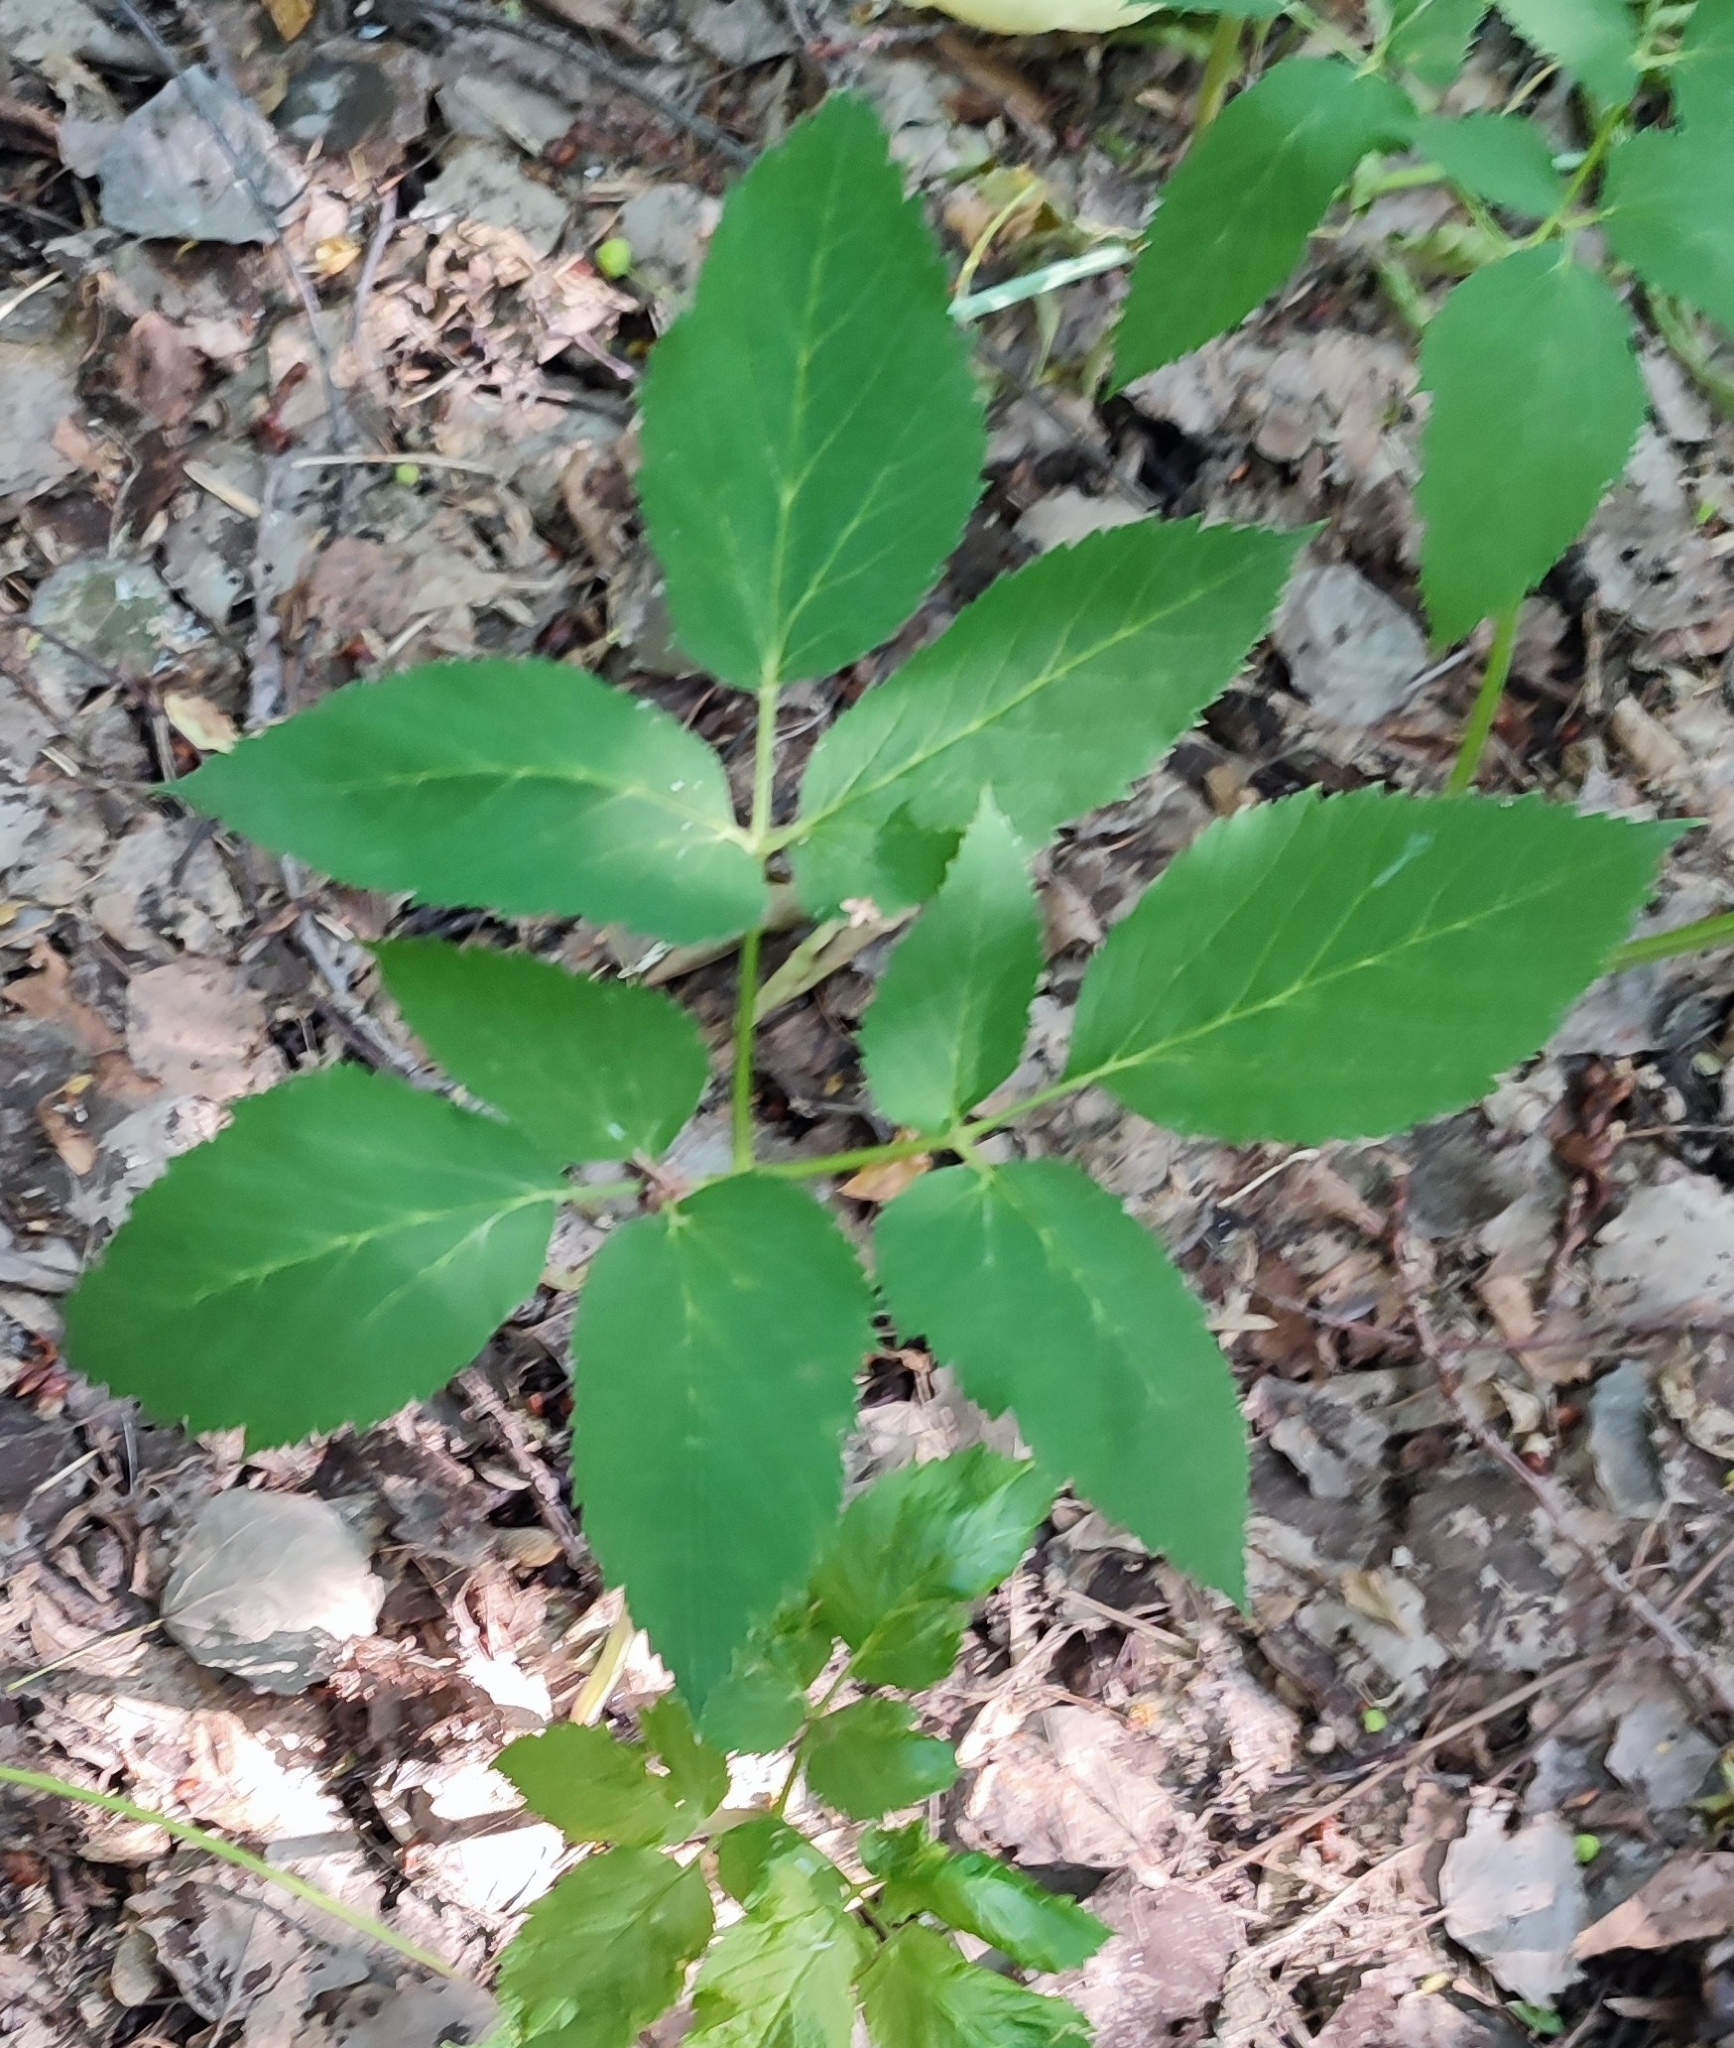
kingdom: Plantae
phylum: Tracheophyta
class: Magnoliopsida
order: Apiales
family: Apiaceae
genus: Aegopodium
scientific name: Aegopodium podagraria
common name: Ground-elder
